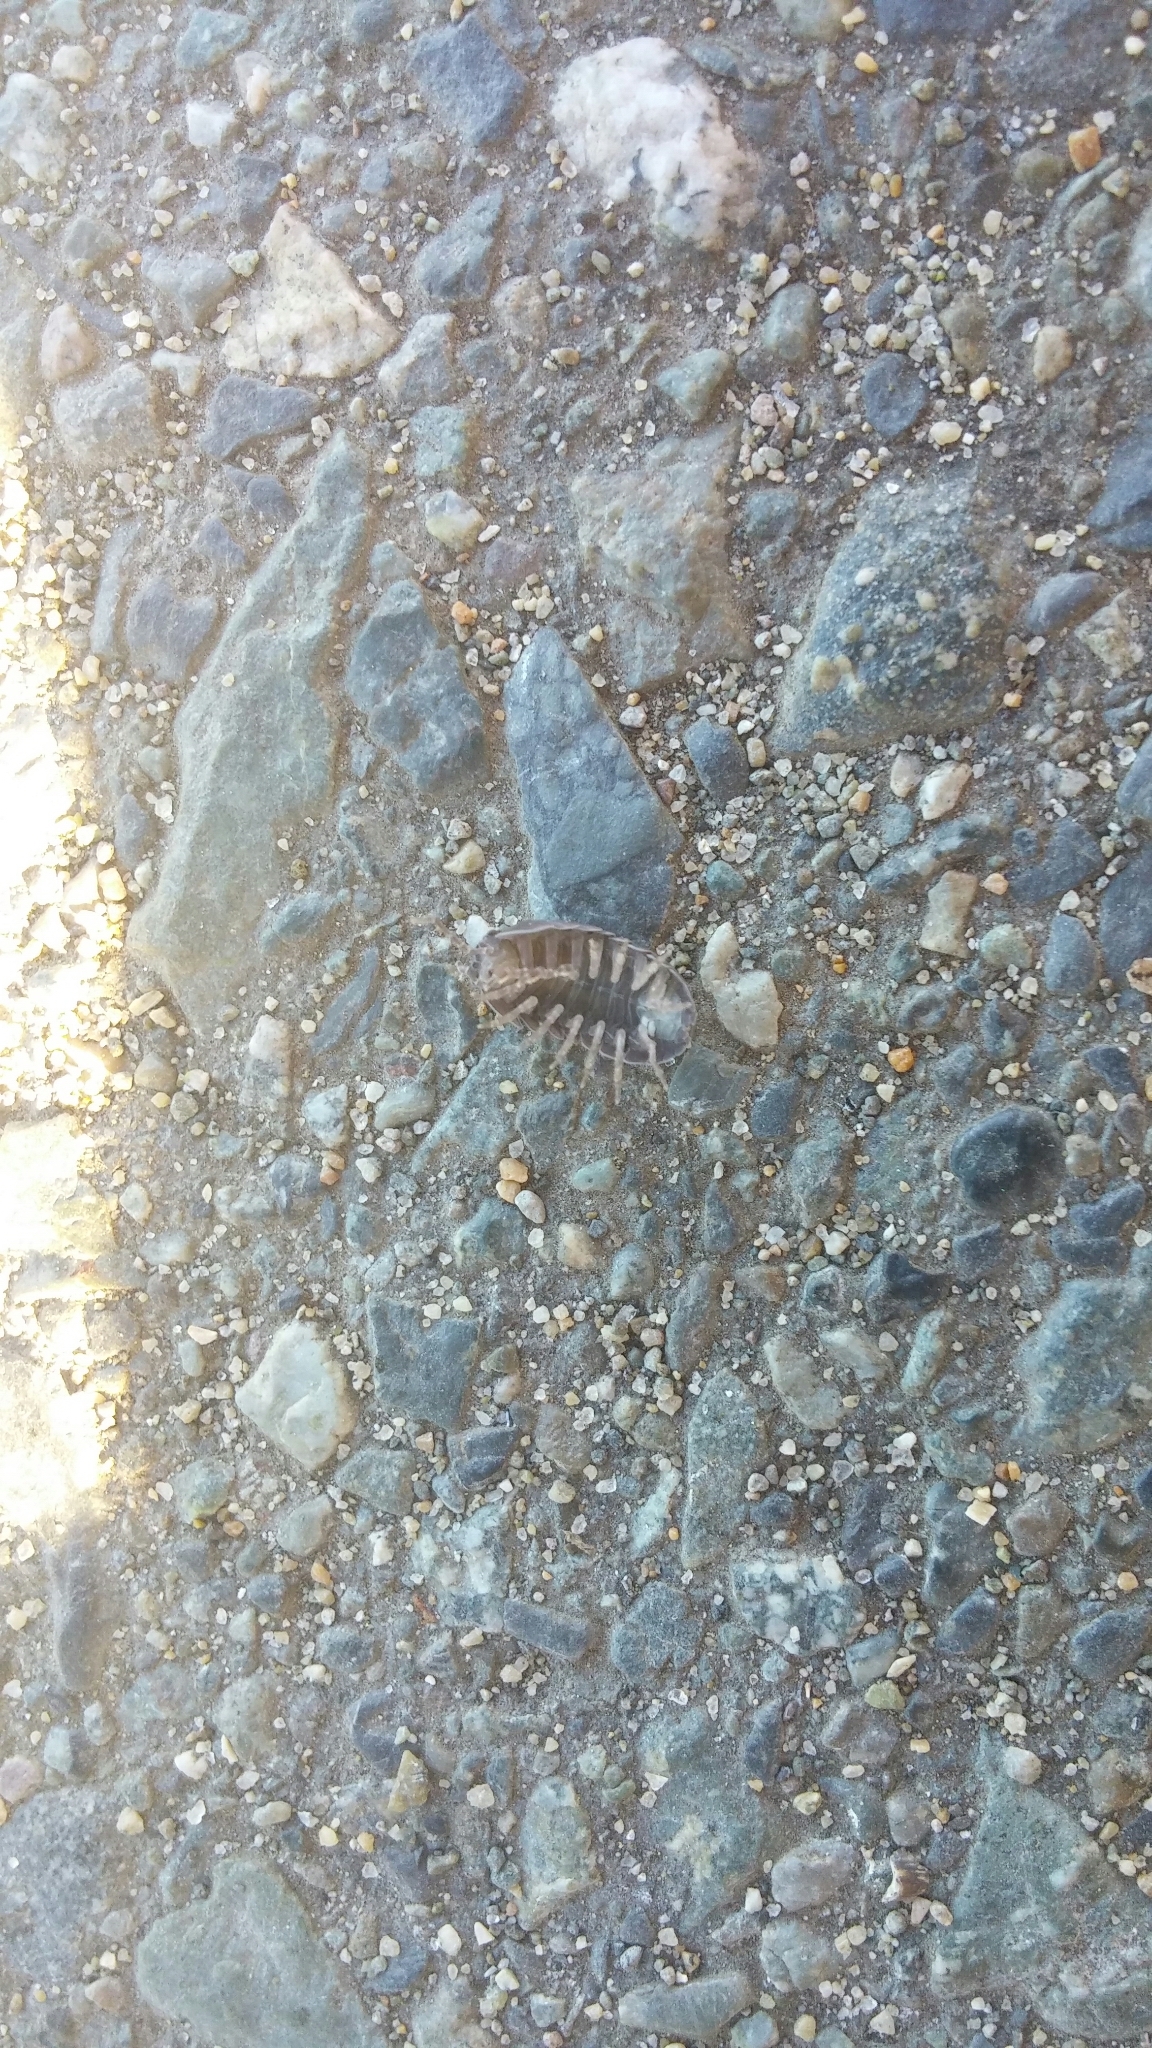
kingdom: Animalia
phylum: Arthropoda
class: Malacostraca
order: Isopoda
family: Armadillidiidae
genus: Armadillidium
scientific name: Armadillidium vulgare
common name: Common pill woodlouse
